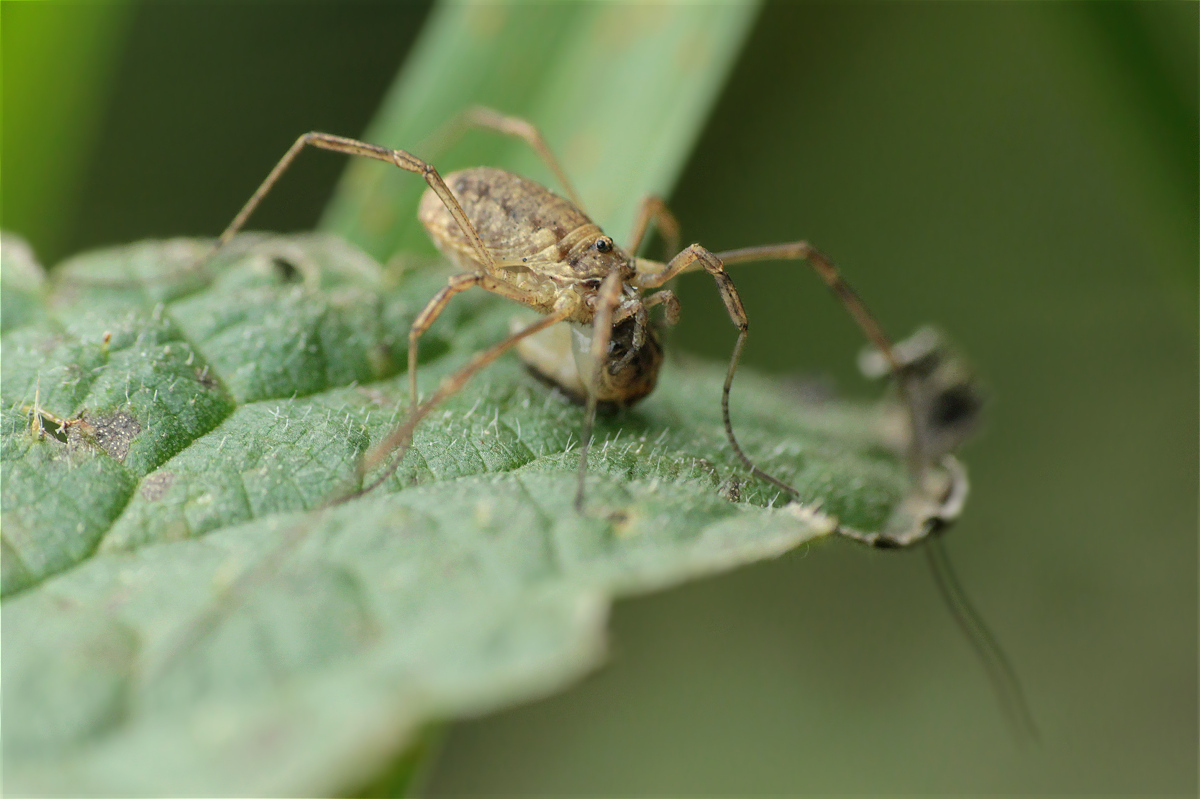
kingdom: Animalia
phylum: Arthropoda
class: Arachnida
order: Opiliones
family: Phalangiidae
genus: Oligolophus
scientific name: Oligolophus tridens
